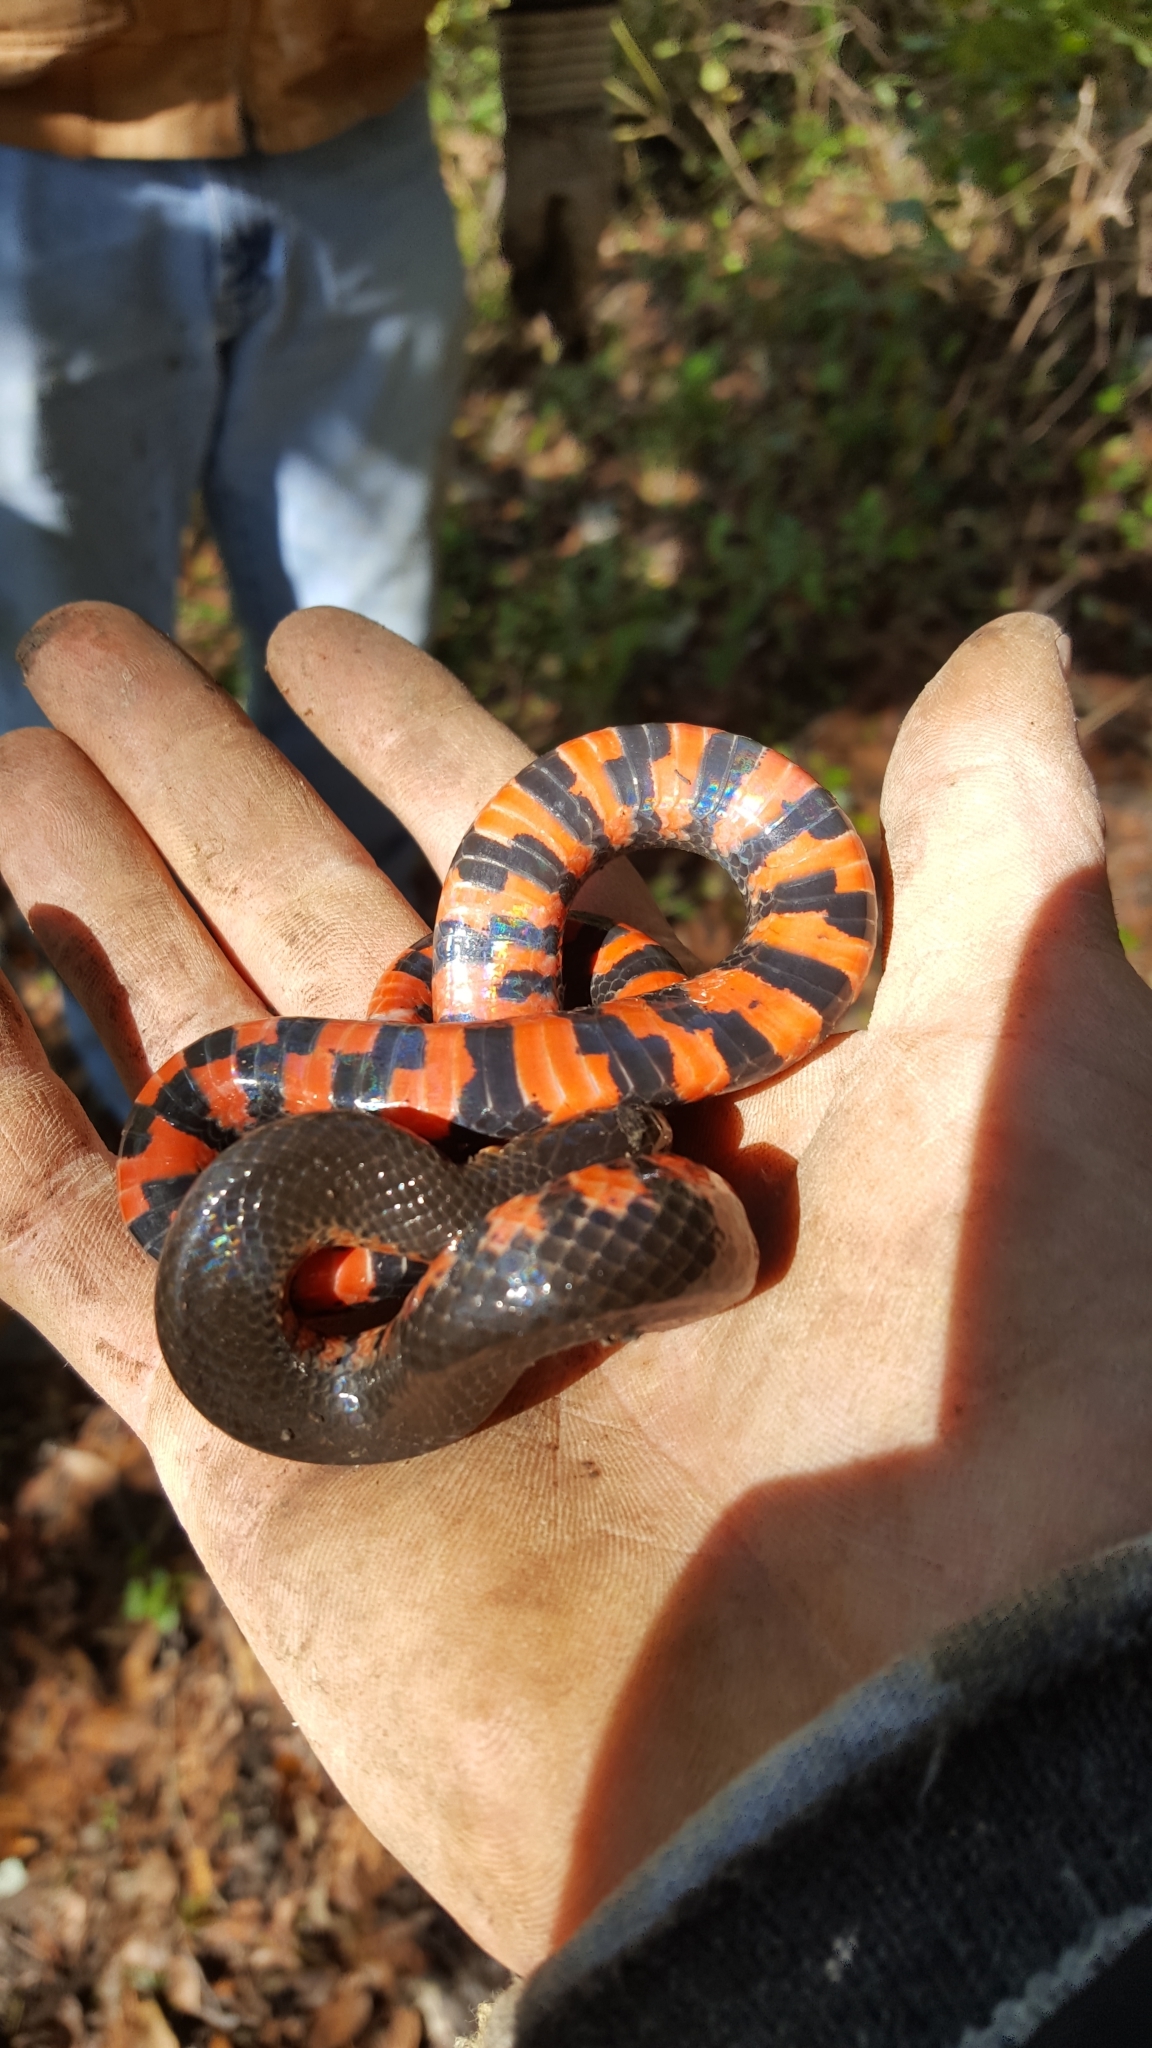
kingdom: Animalia
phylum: Chordata
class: Squamata
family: Colubridae
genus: Farancia
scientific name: Farancia abacura
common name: Mud snake
